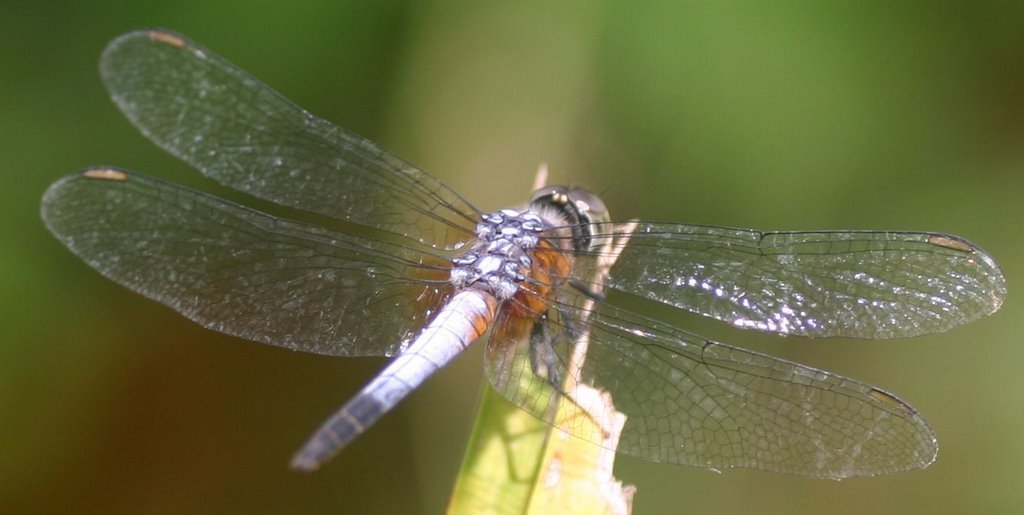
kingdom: Animalia
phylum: Arthropoda
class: Insecta
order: Odonata
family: Libellulidae
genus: Brachydiplax
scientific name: Brachydiplax chalybea
